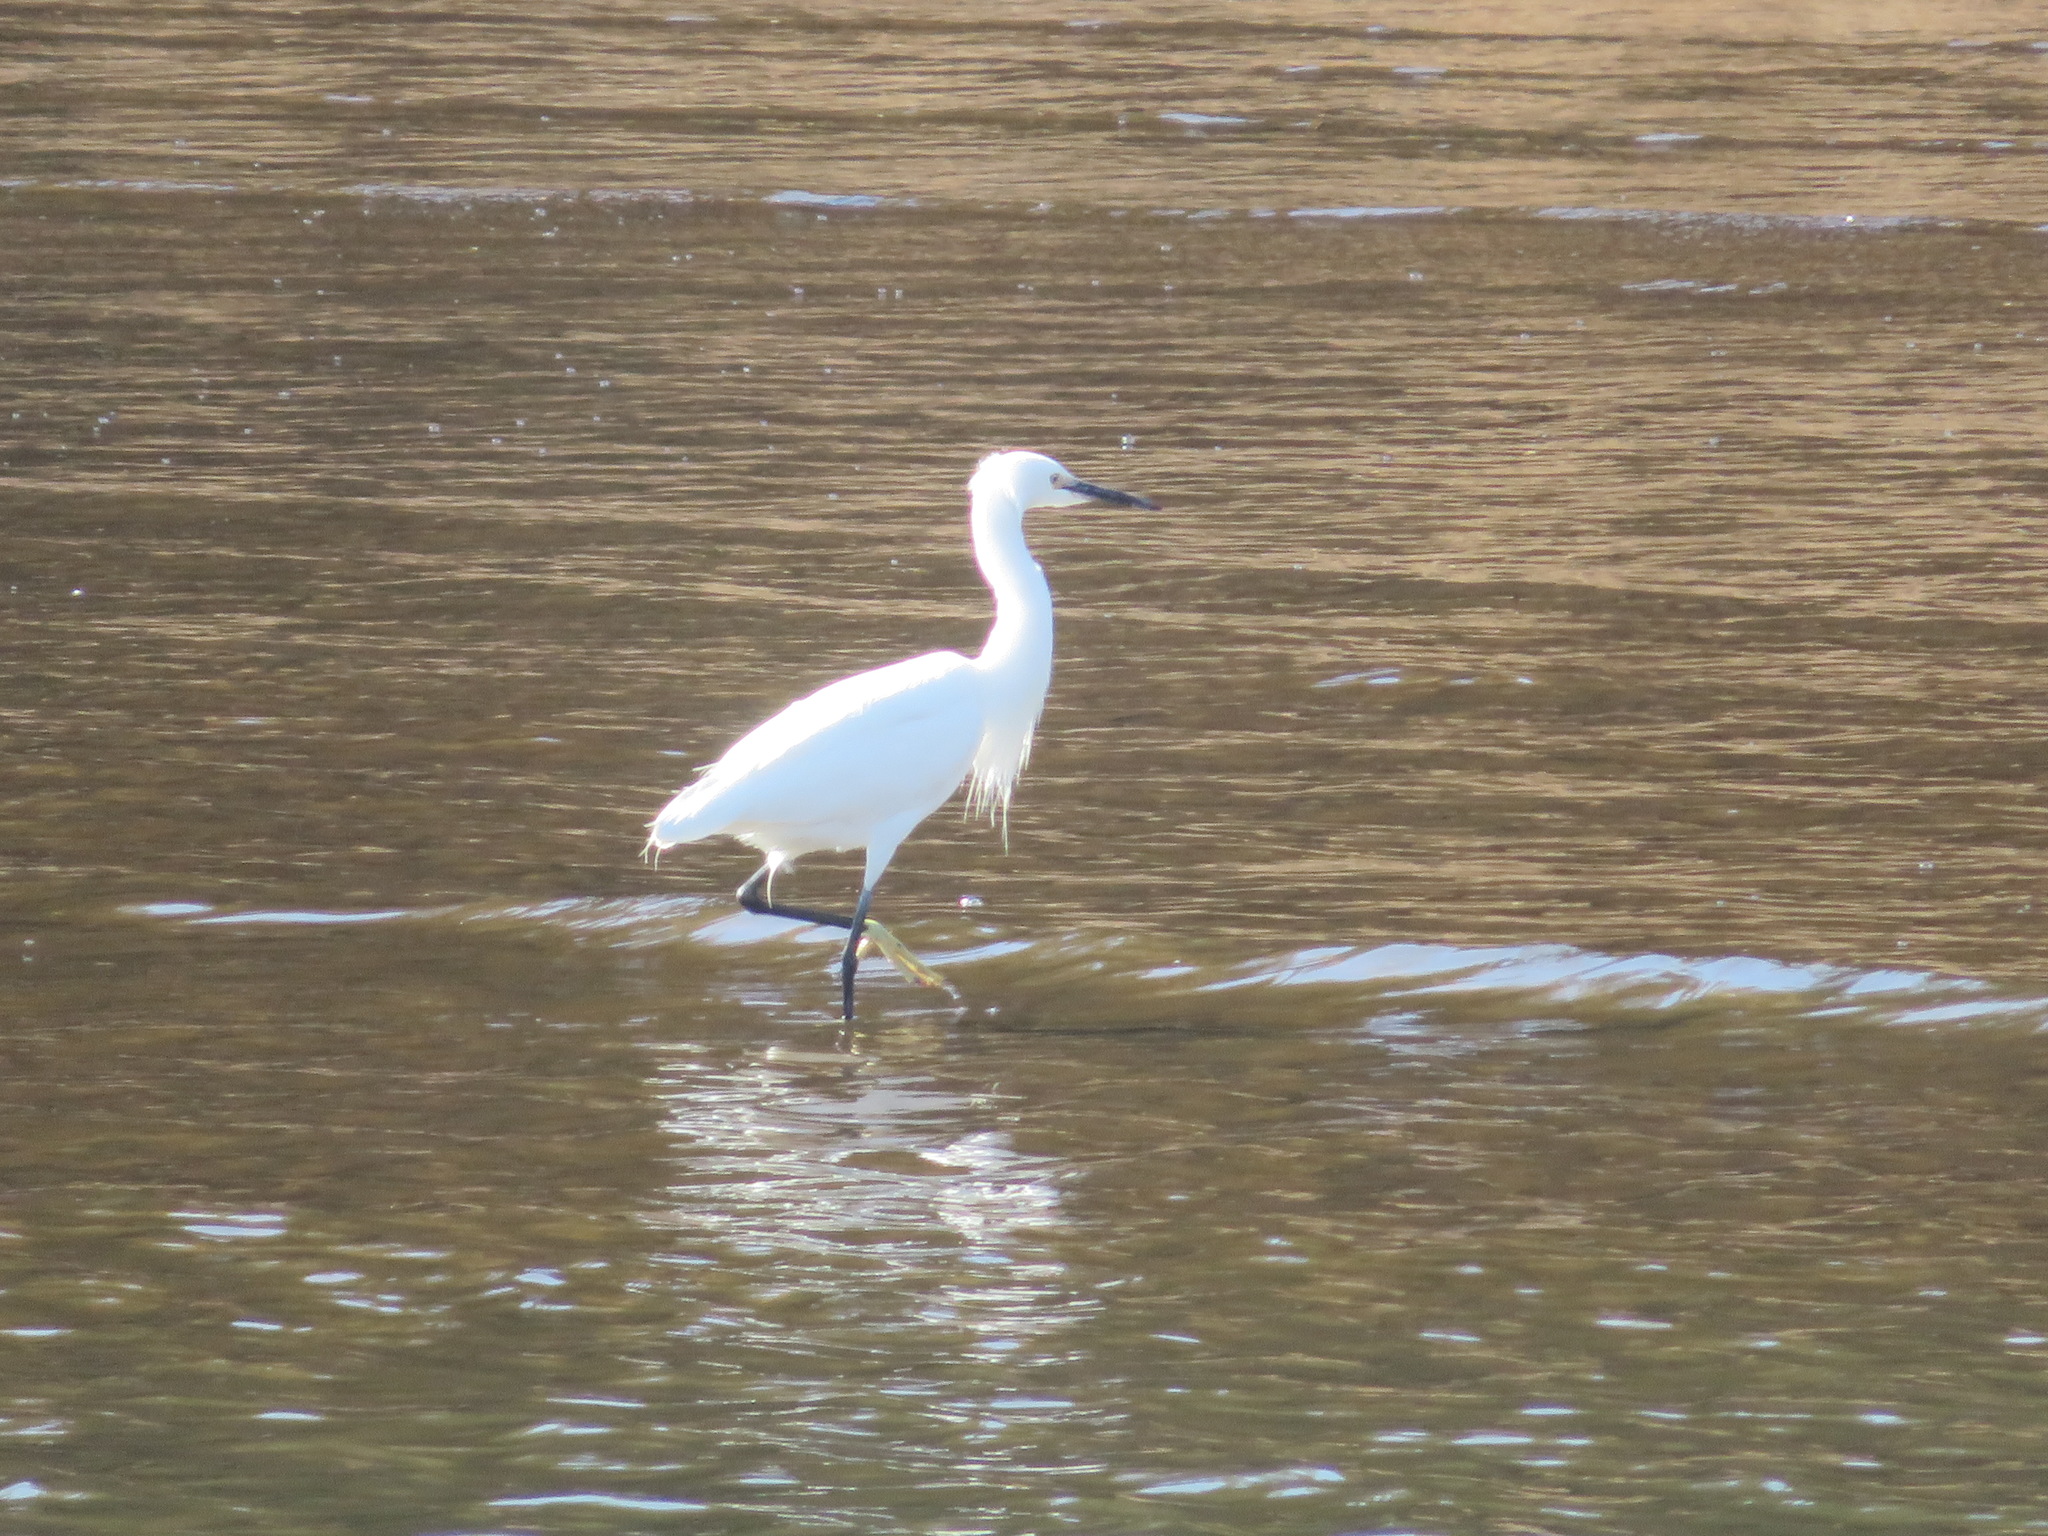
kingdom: Animalia
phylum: Chordata
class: Aves
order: Pelecaniformes
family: Ardeidae
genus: Egretta
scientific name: Egretta garzetta
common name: Little egret
